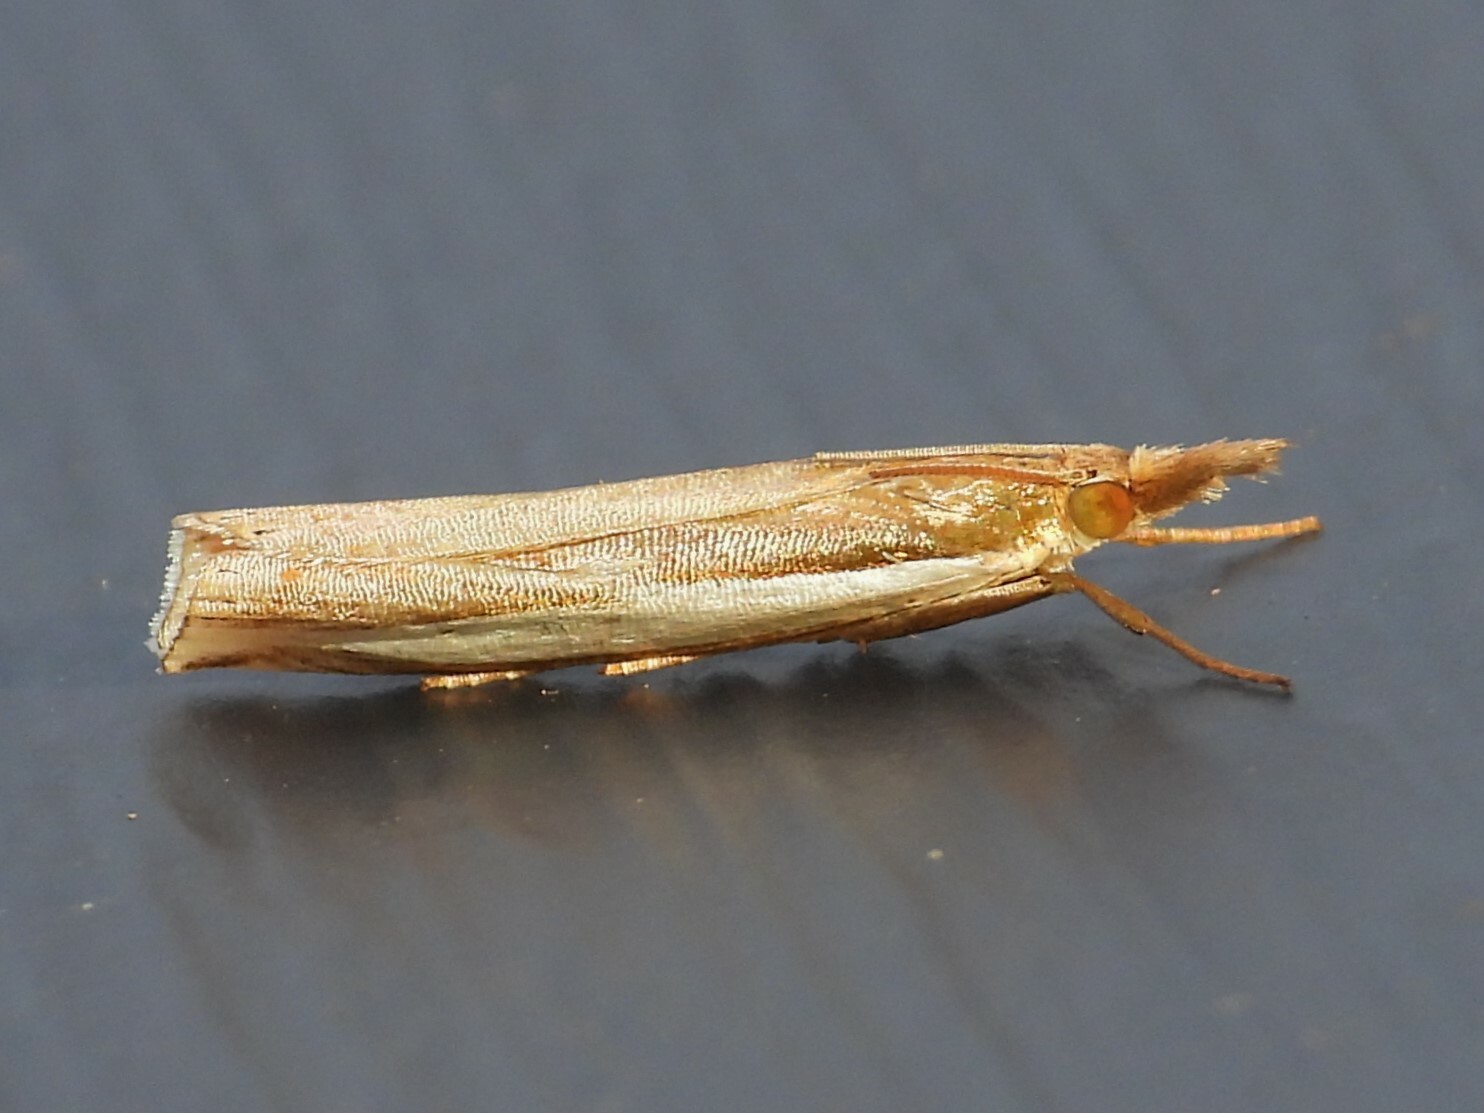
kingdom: Animalia
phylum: Arthropoda
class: Insecta
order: Lepidoptera
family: Crambidae
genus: Crambus
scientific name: Crambus
